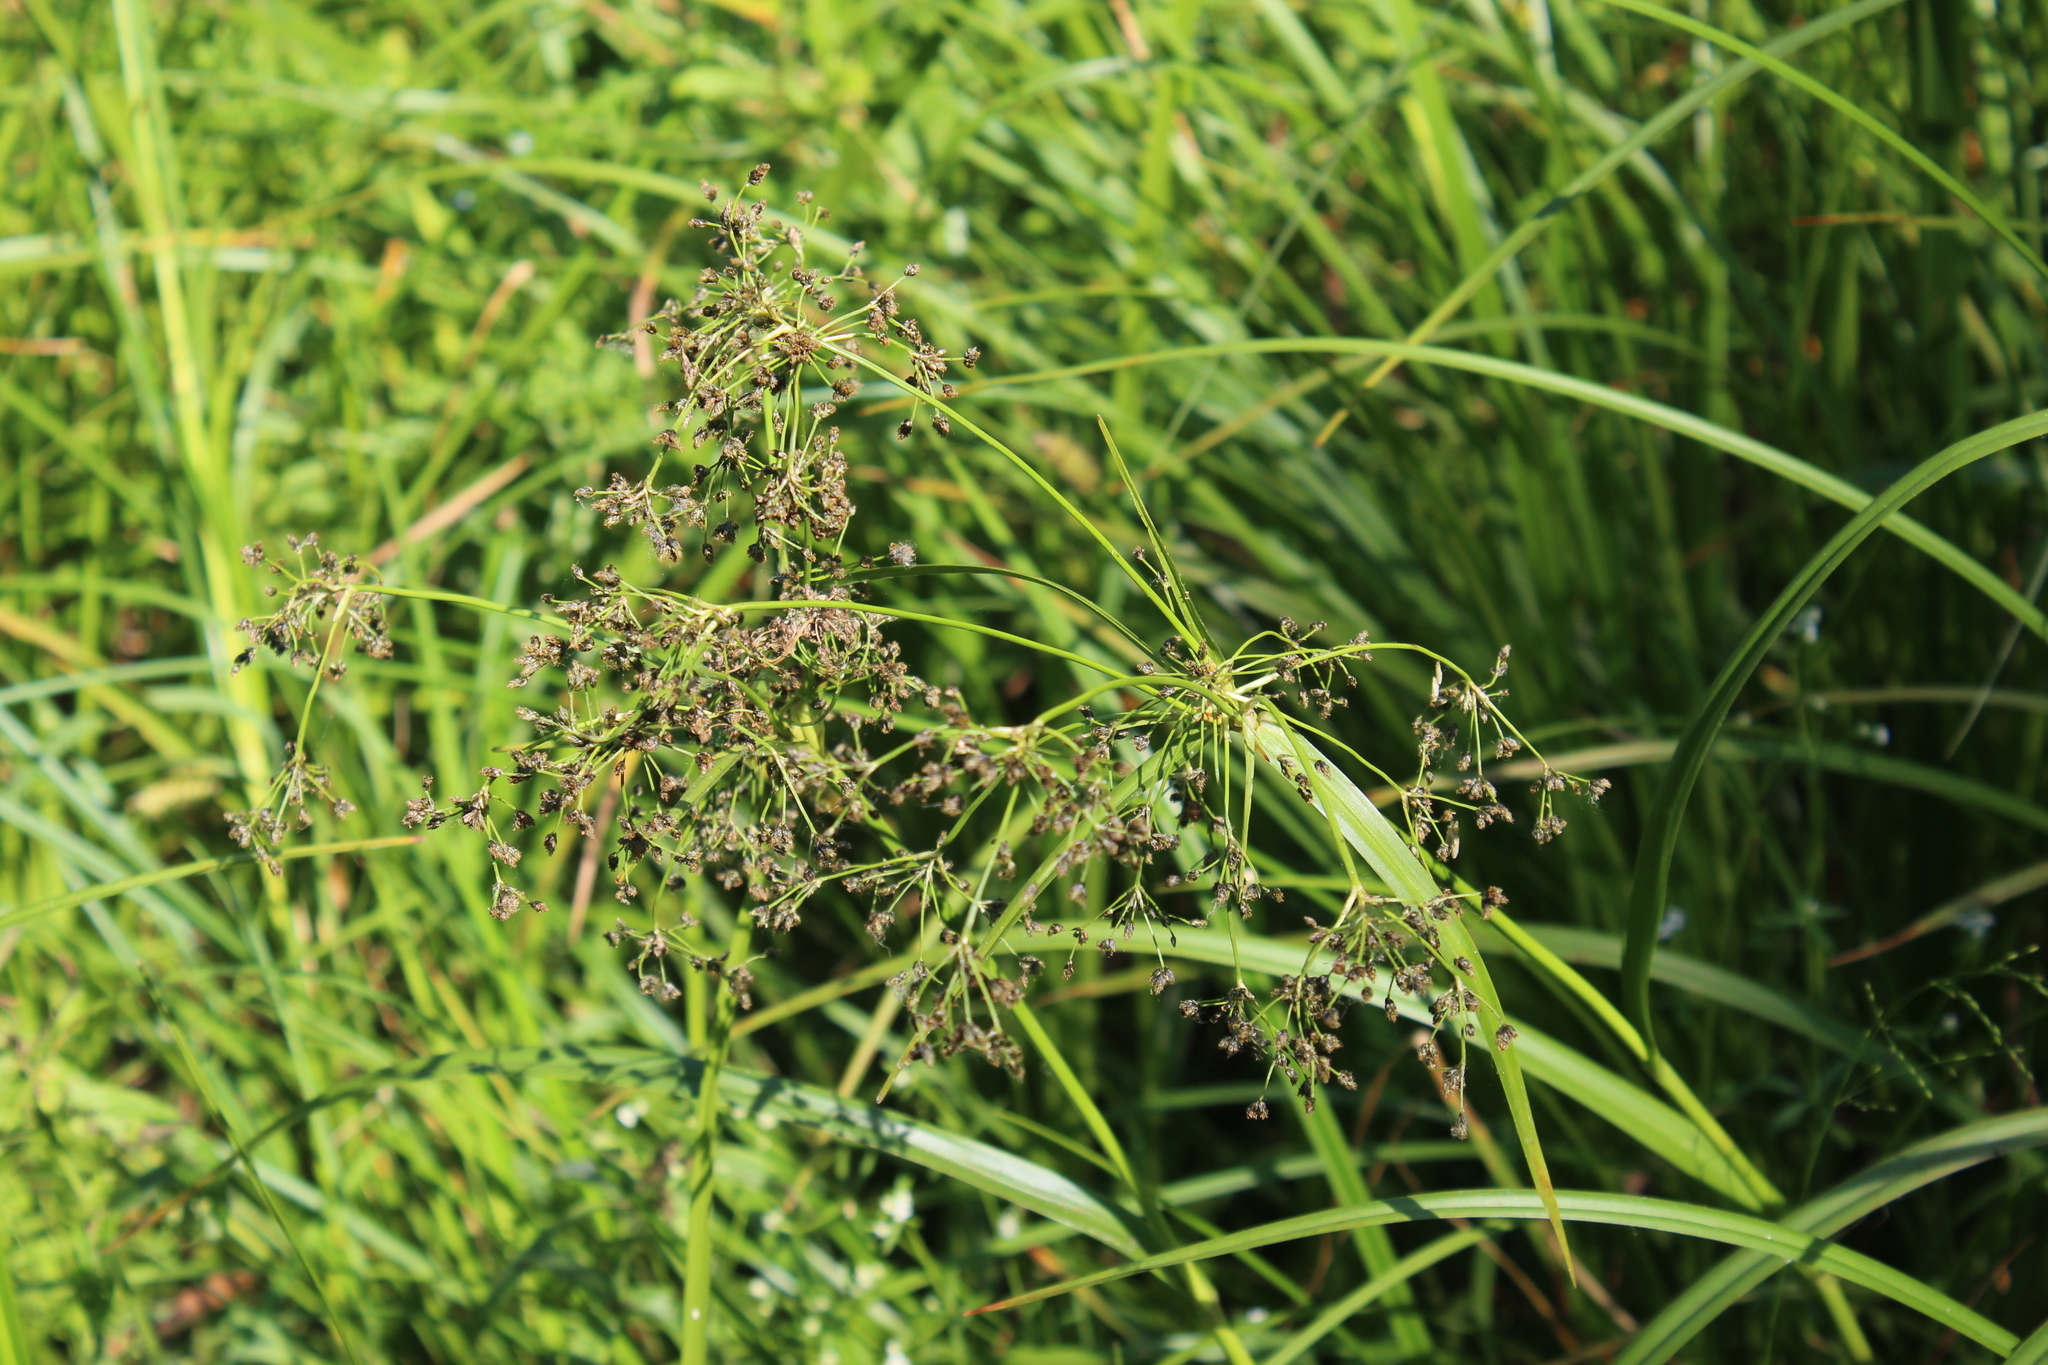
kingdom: Plantae
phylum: Tracheophyta
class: Liliopsida
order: Poales
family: Cyperaceae
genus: Scirpus
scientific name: Scirpus sylvaticus
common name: Wood club-rush
